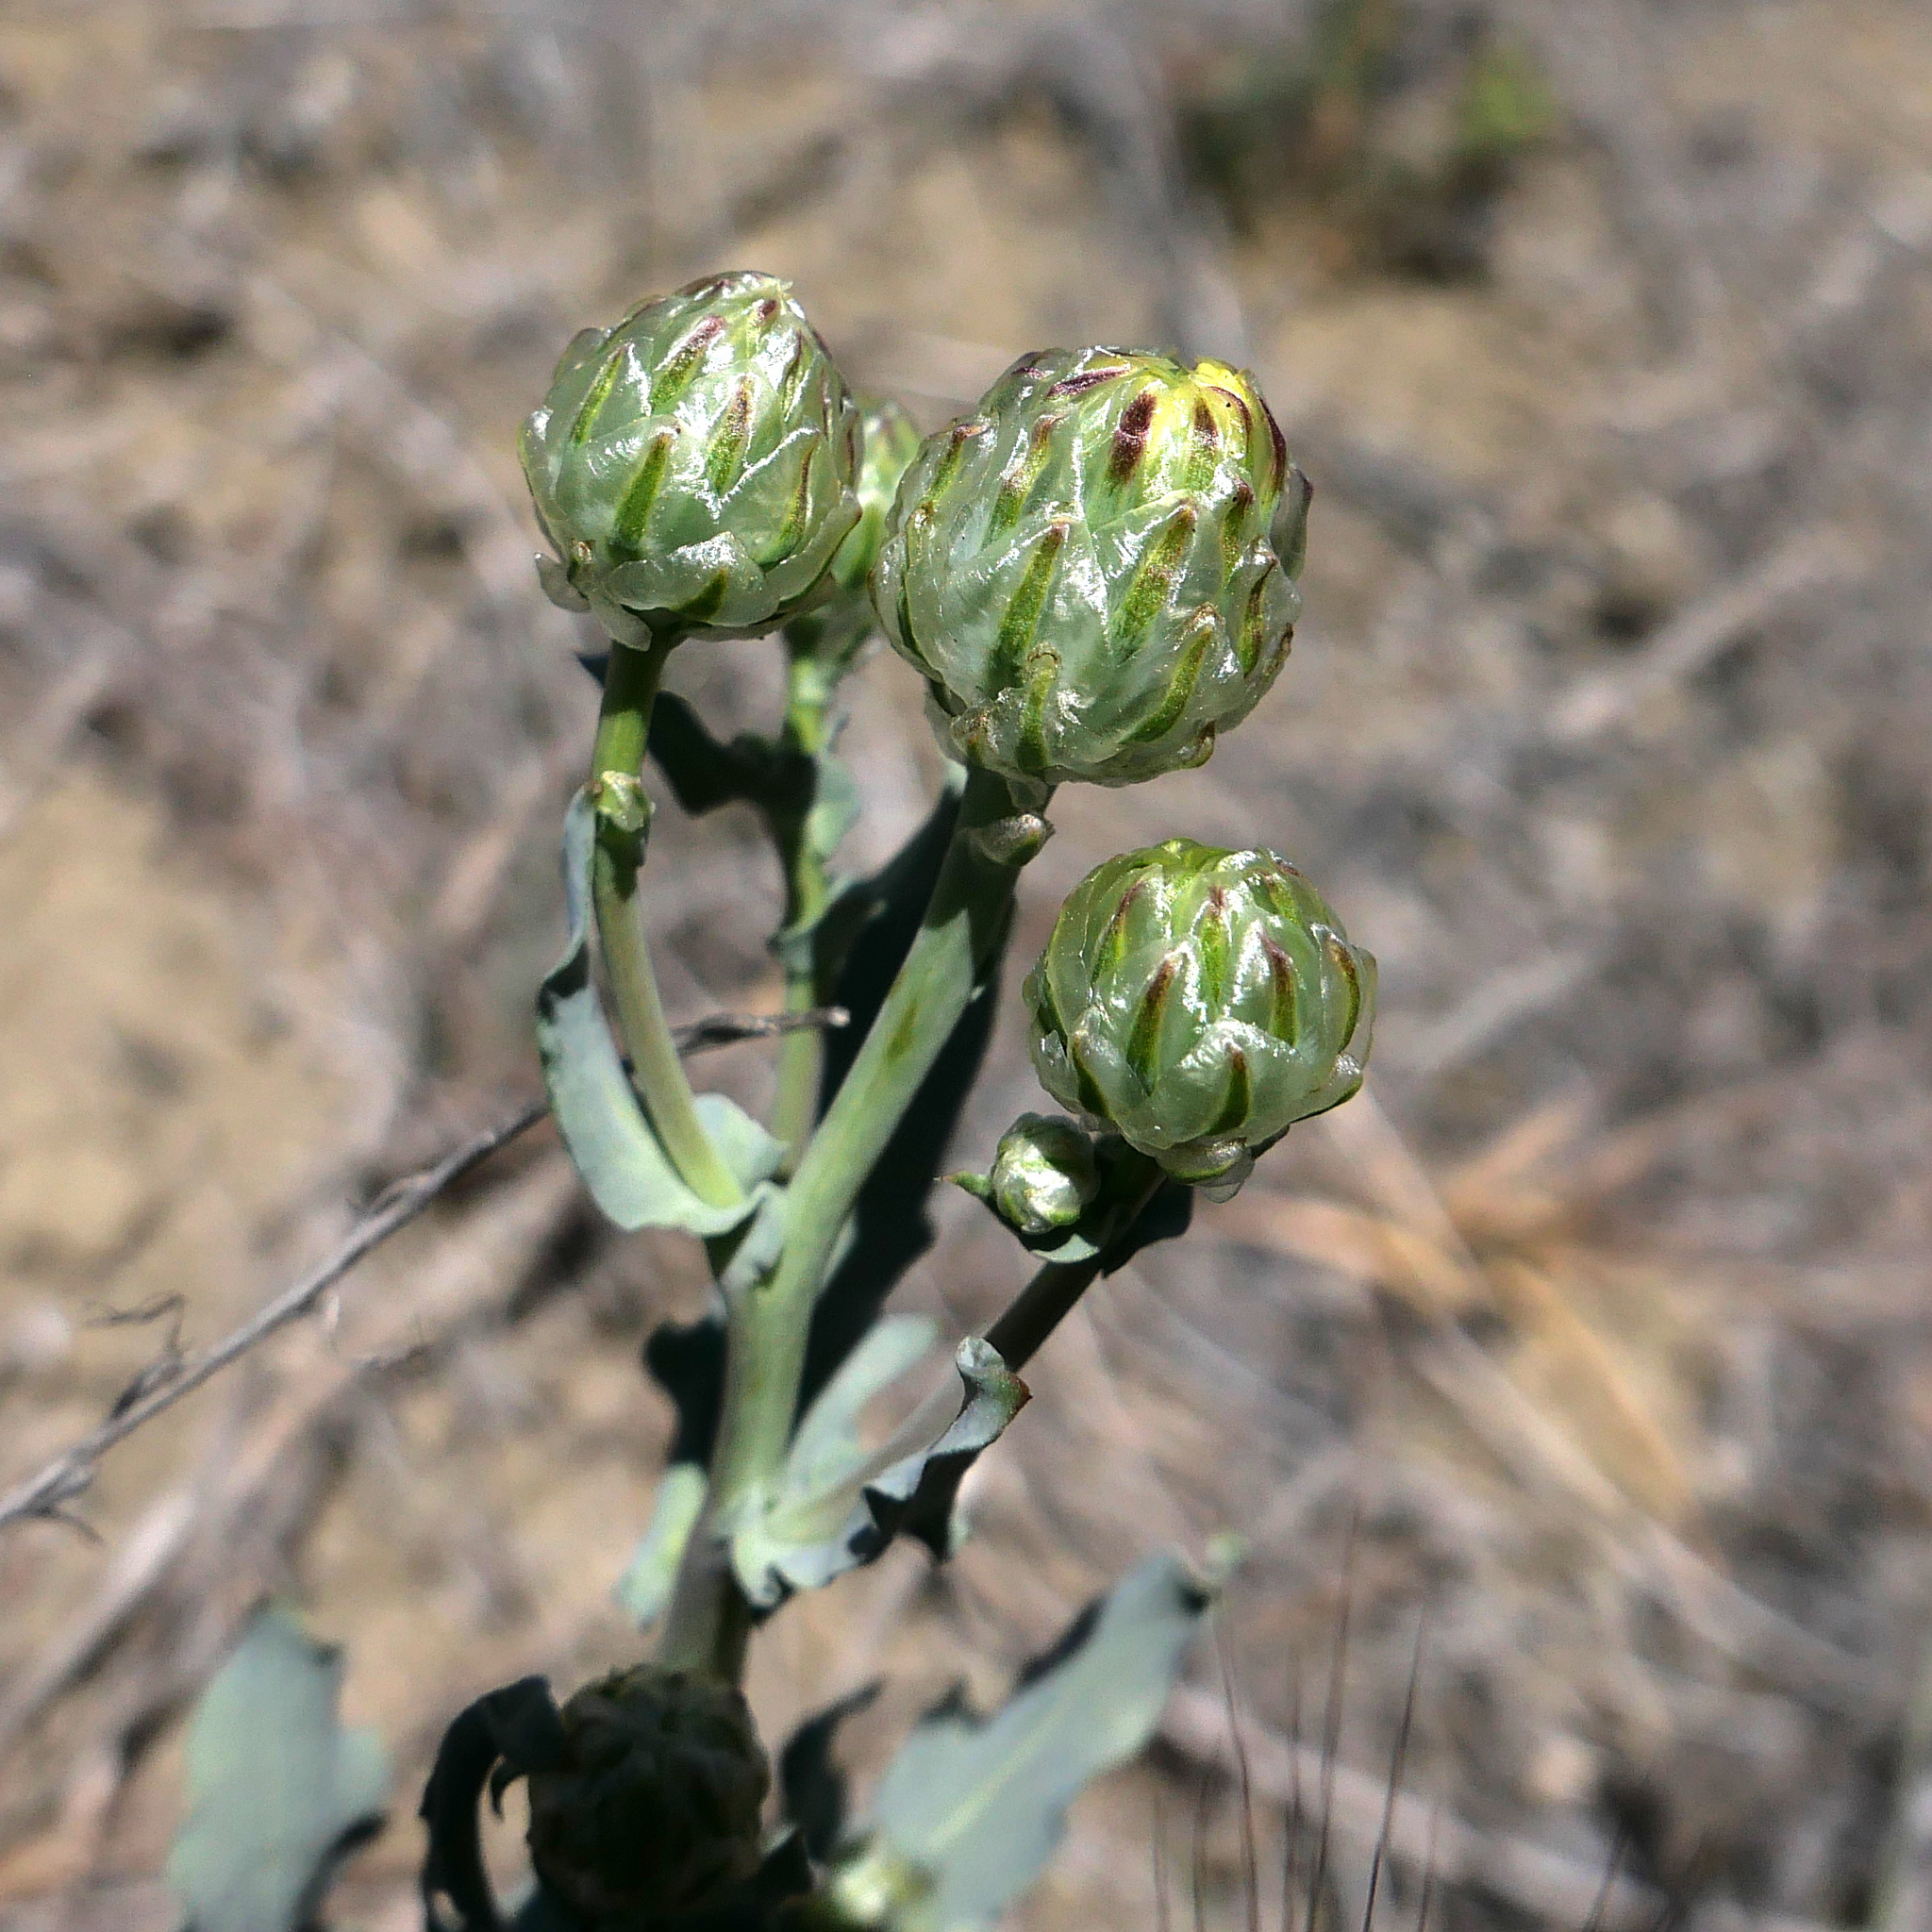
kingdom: Plantae
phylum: Tracheophyta
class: Magnoliopsida
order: Asterales
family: Asteraceae
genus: Malacothrix
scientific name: Malacothrix coulteri
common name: Snake's-head
